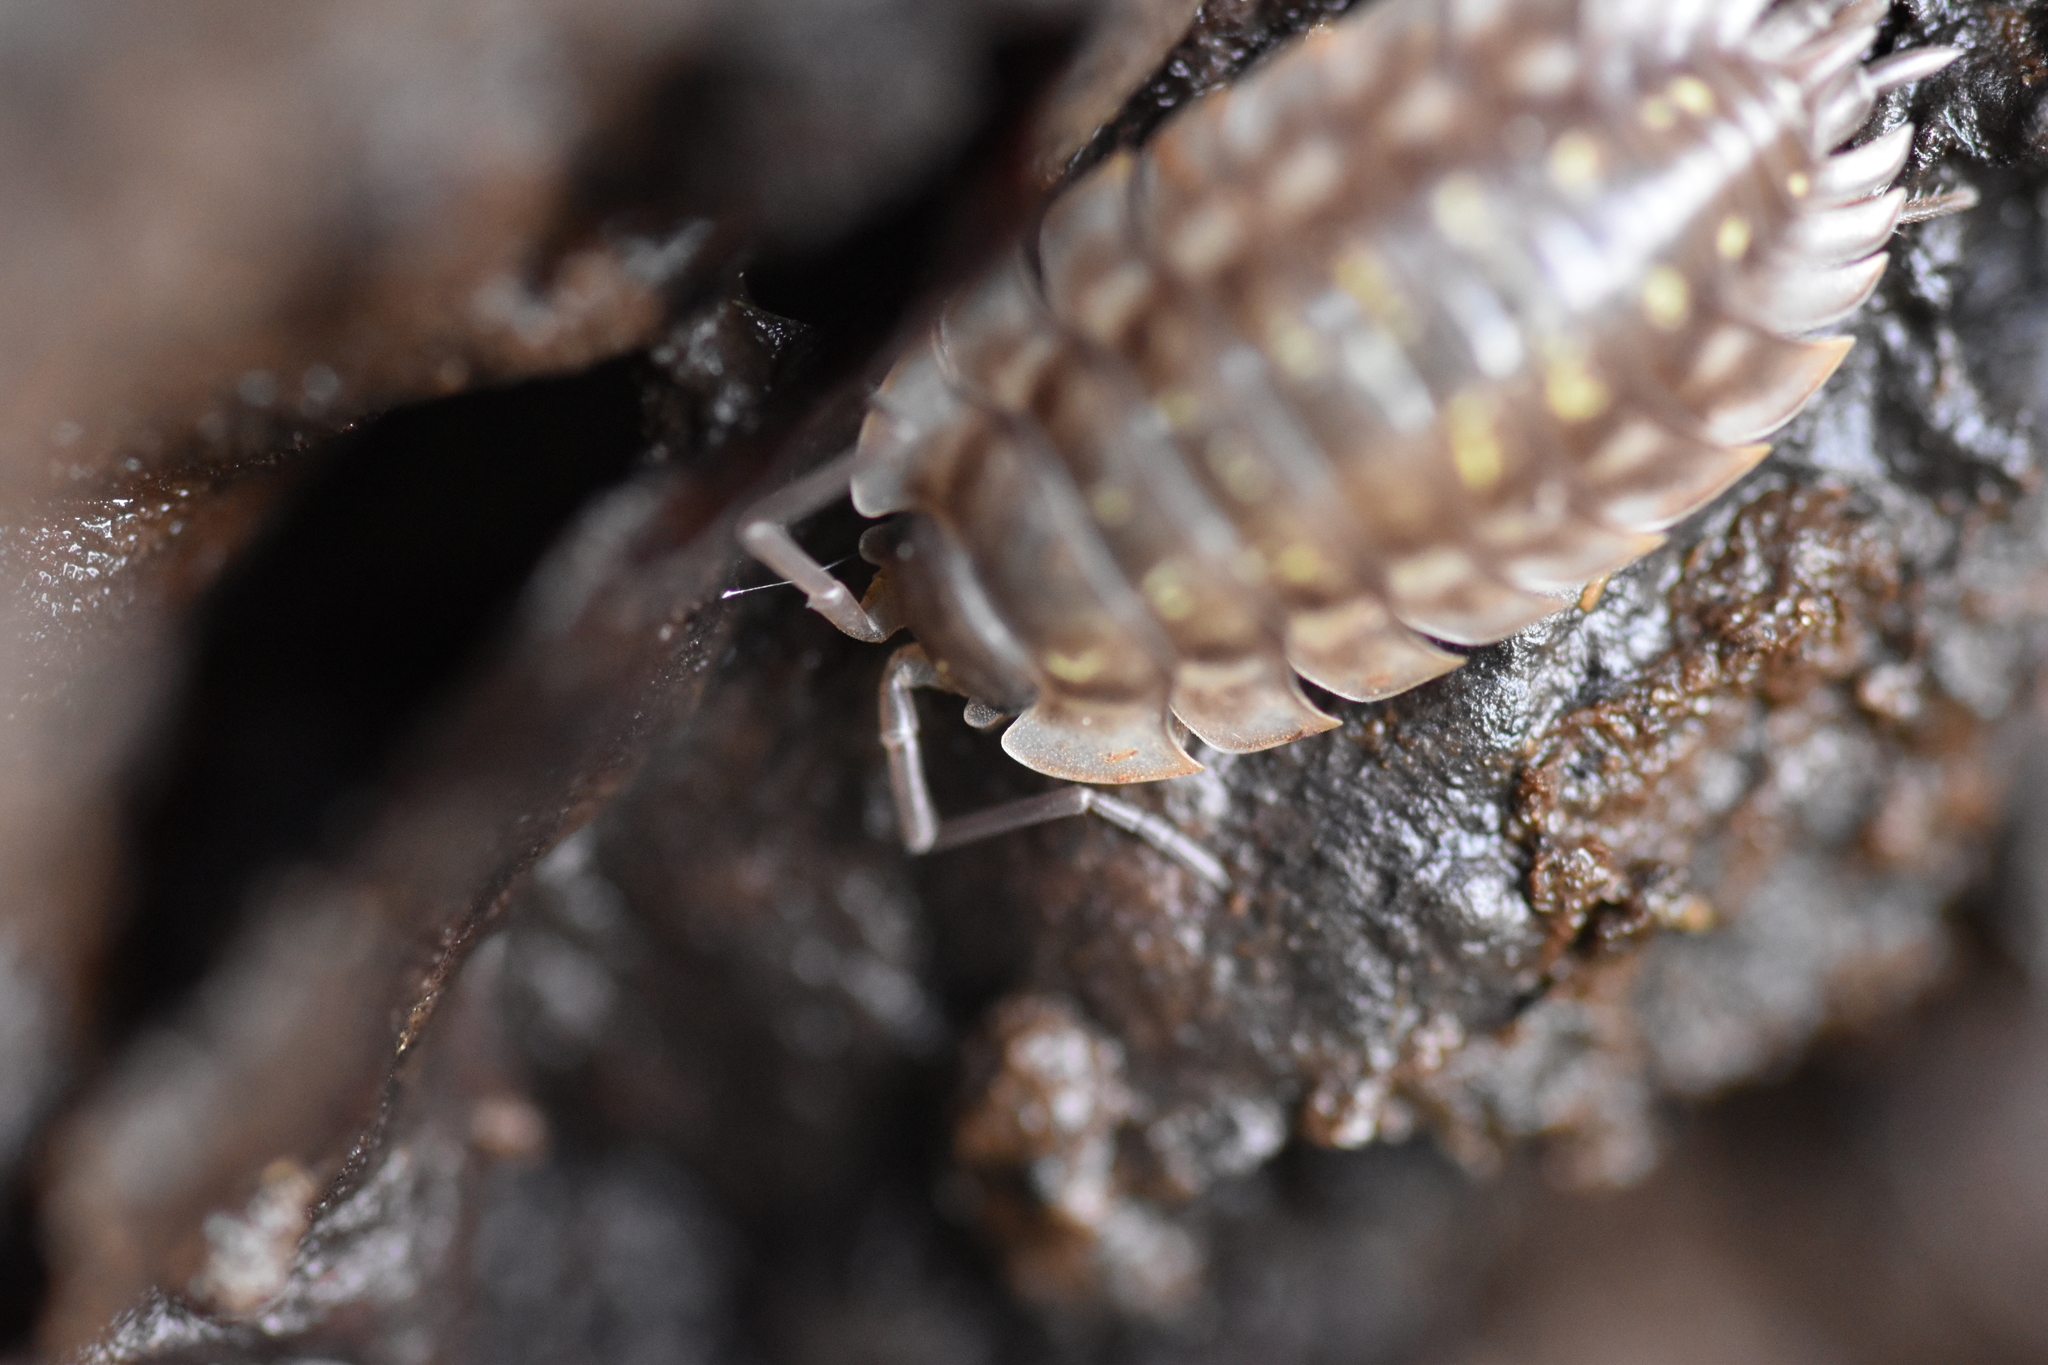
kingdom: Animalia
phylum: Arthropoda
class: Malacostraca
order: Isopoda
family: Oniscidae
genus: Oniscus
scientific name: Oniscus asellus
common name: Common shiny woodlouse
